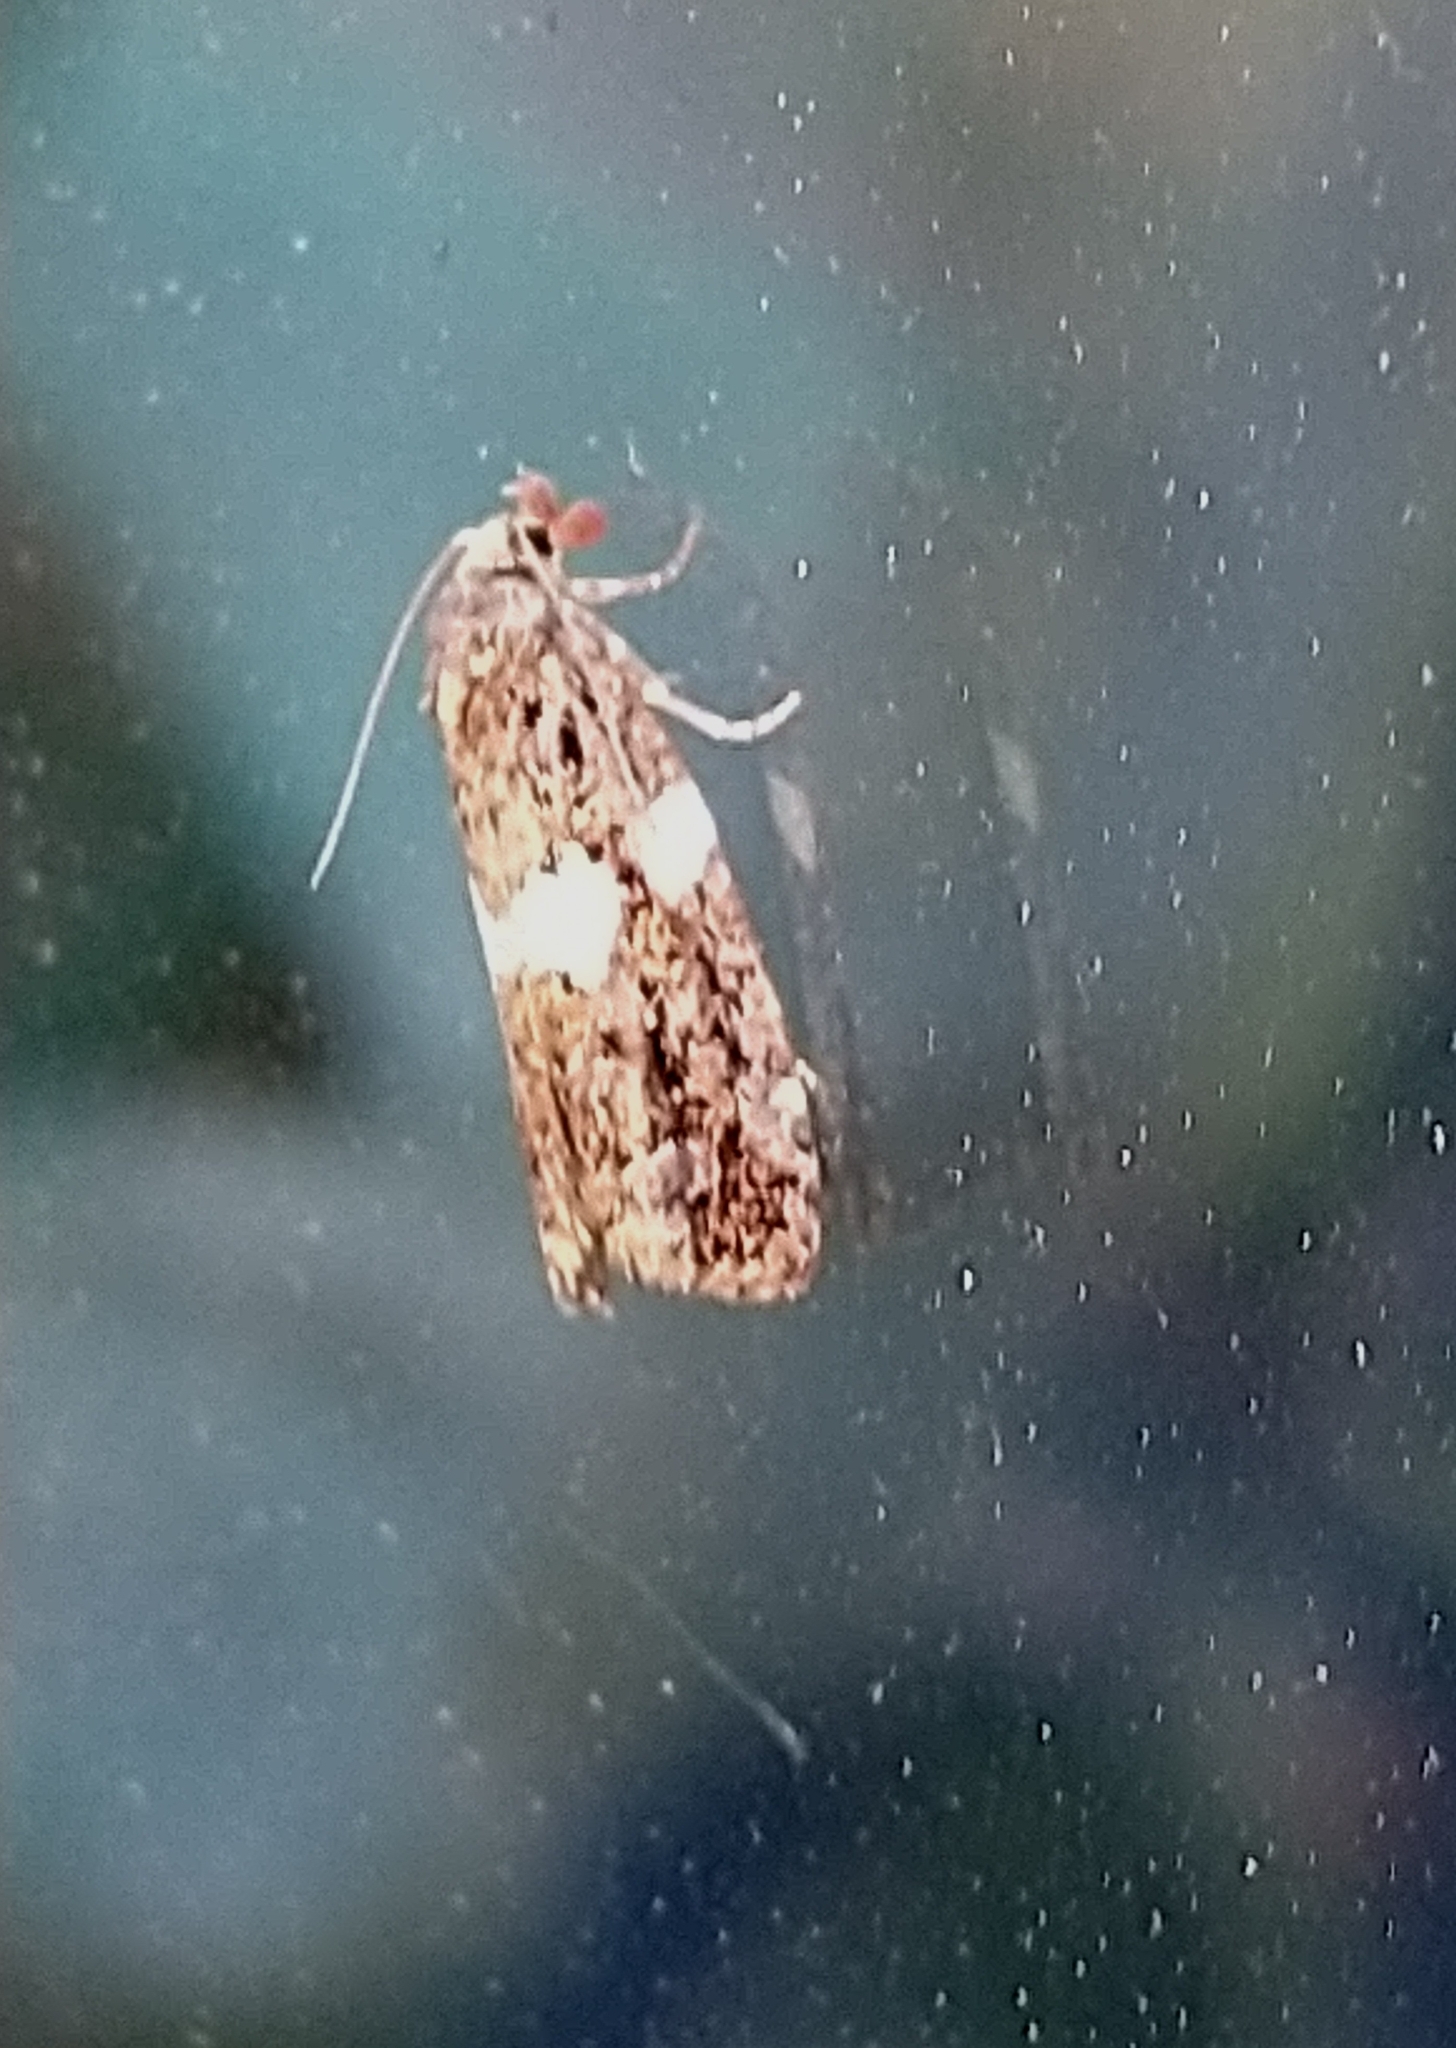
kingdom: Animalia
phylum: Arthropoda
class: Insecta
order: Lepidoptera
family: Tortricidae
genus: Olindia
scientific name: Olindia schumacherana
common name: White-barred tortrix
